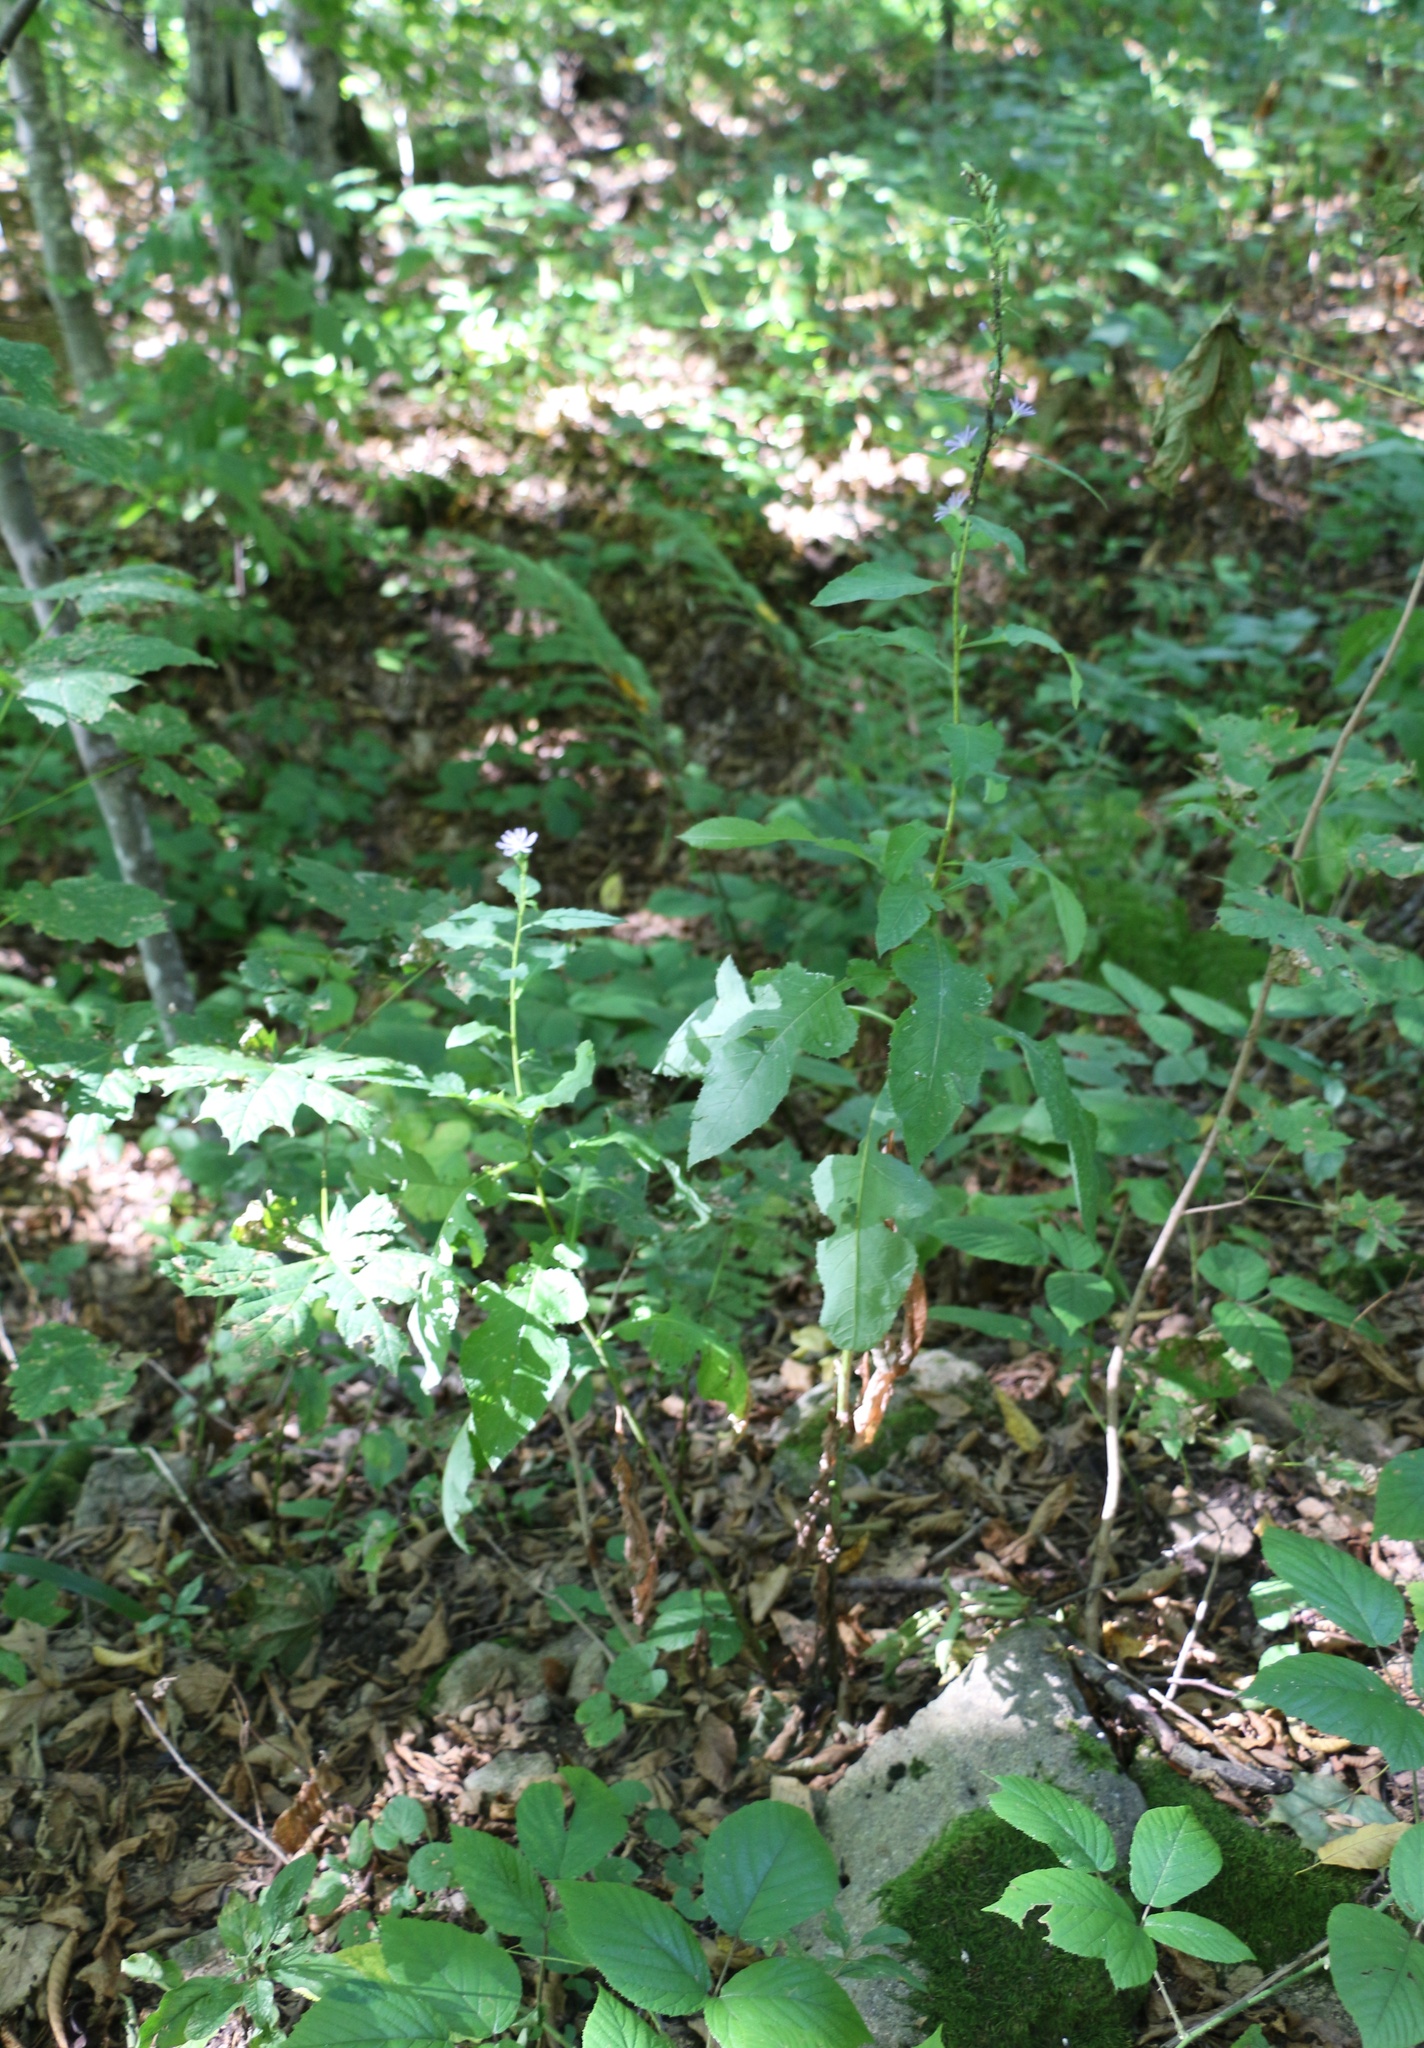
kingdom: Plantae
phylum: Tracheophyta
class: Magnoliopsida
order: Asterales
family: Asteraceae
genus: Cicerbita
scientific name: Cicerbita prenanthoides
